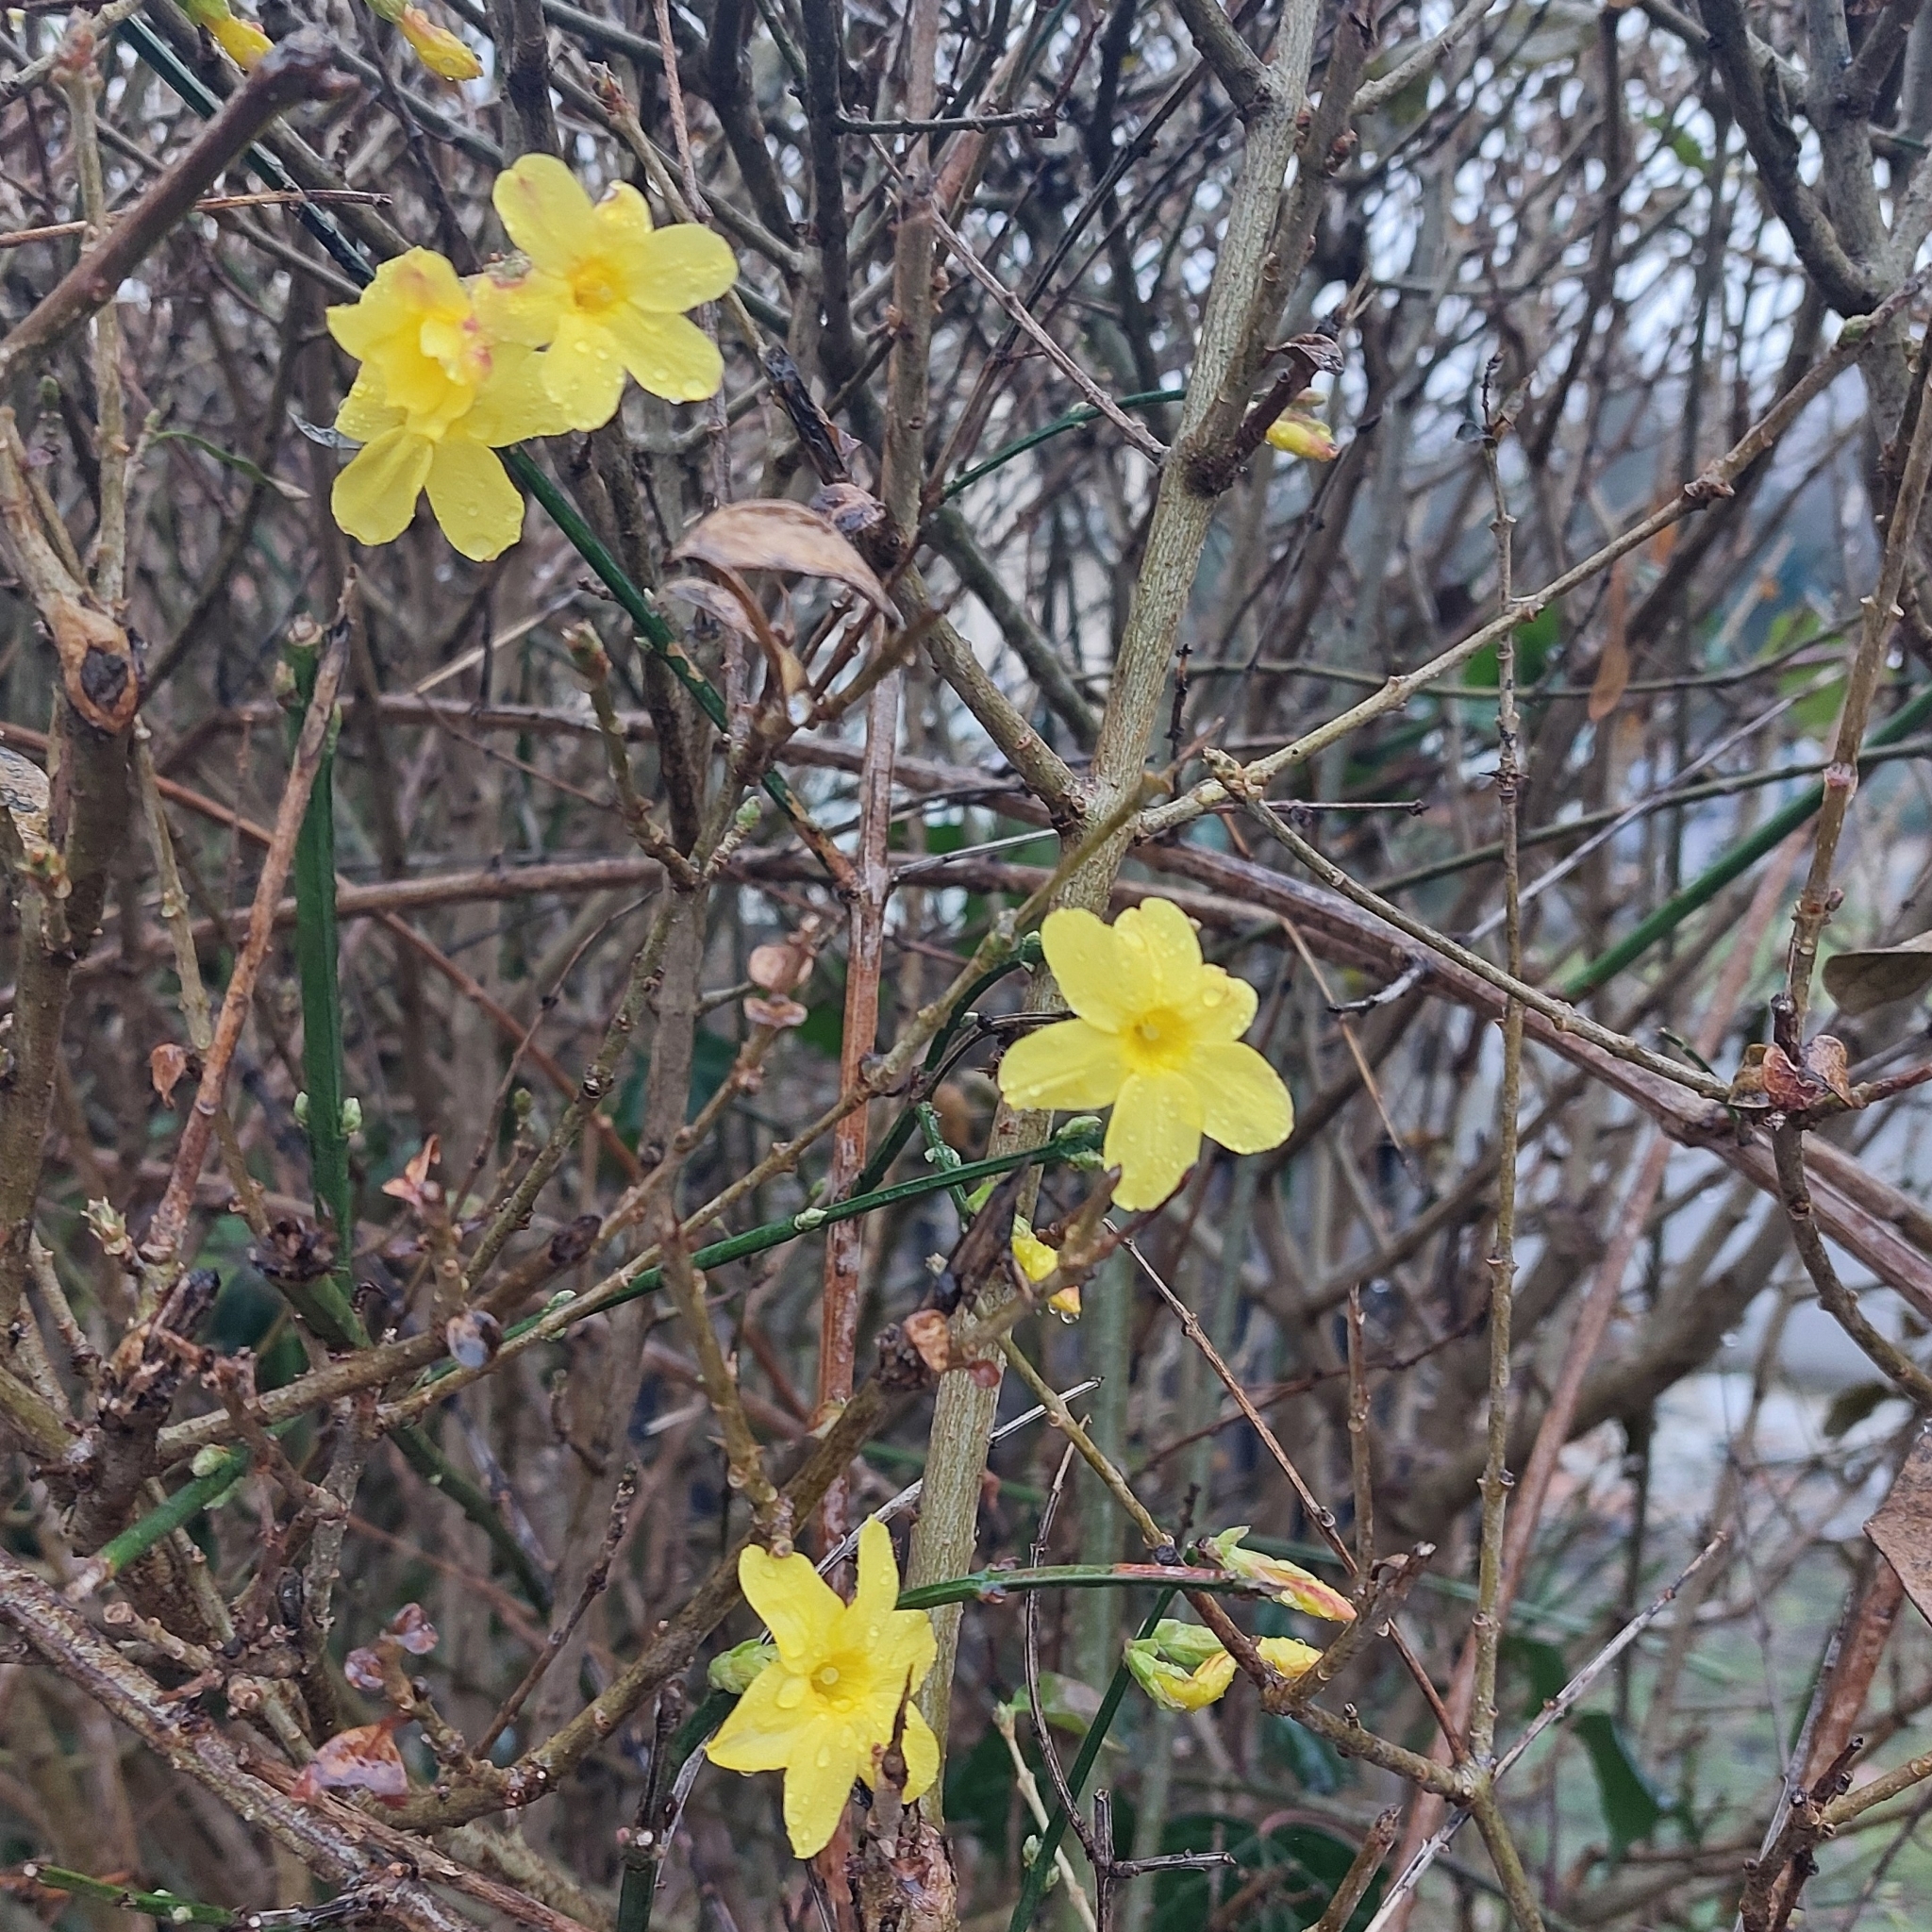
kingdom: Plantae
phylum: Tracheophyta
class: Magnoliopsida
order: Lamiales
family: Oleaceae
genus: Jasminum
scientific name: Jasminum nudiflorum
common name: Winter jasmine
